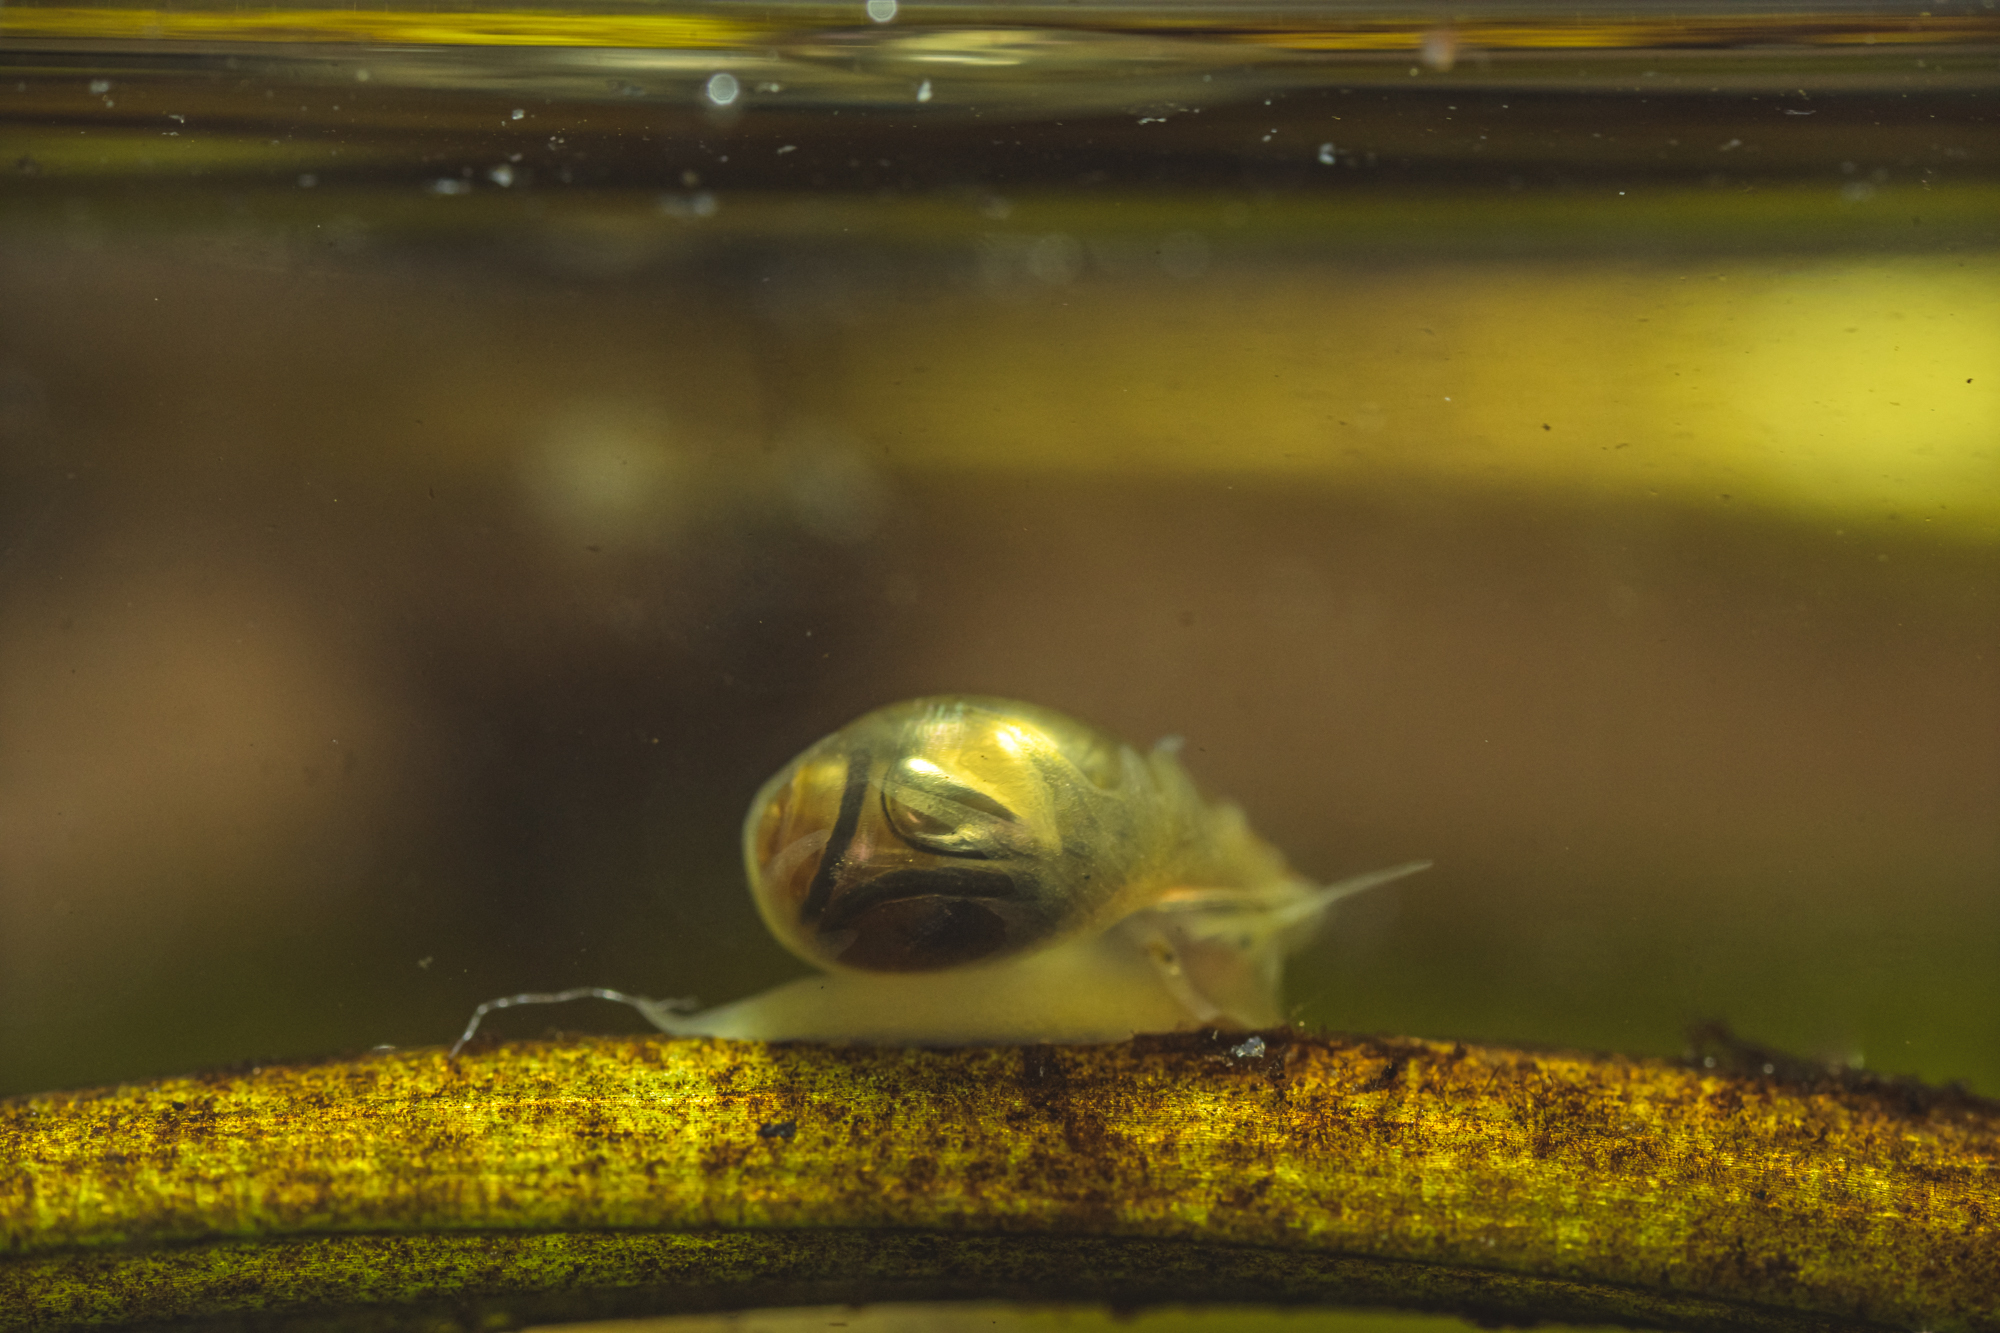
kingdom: Animalia
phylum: Mollusca
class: Gastropoda
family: Physidae
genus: Physa
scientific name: Physa fontinalis
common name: Common bladder snail
